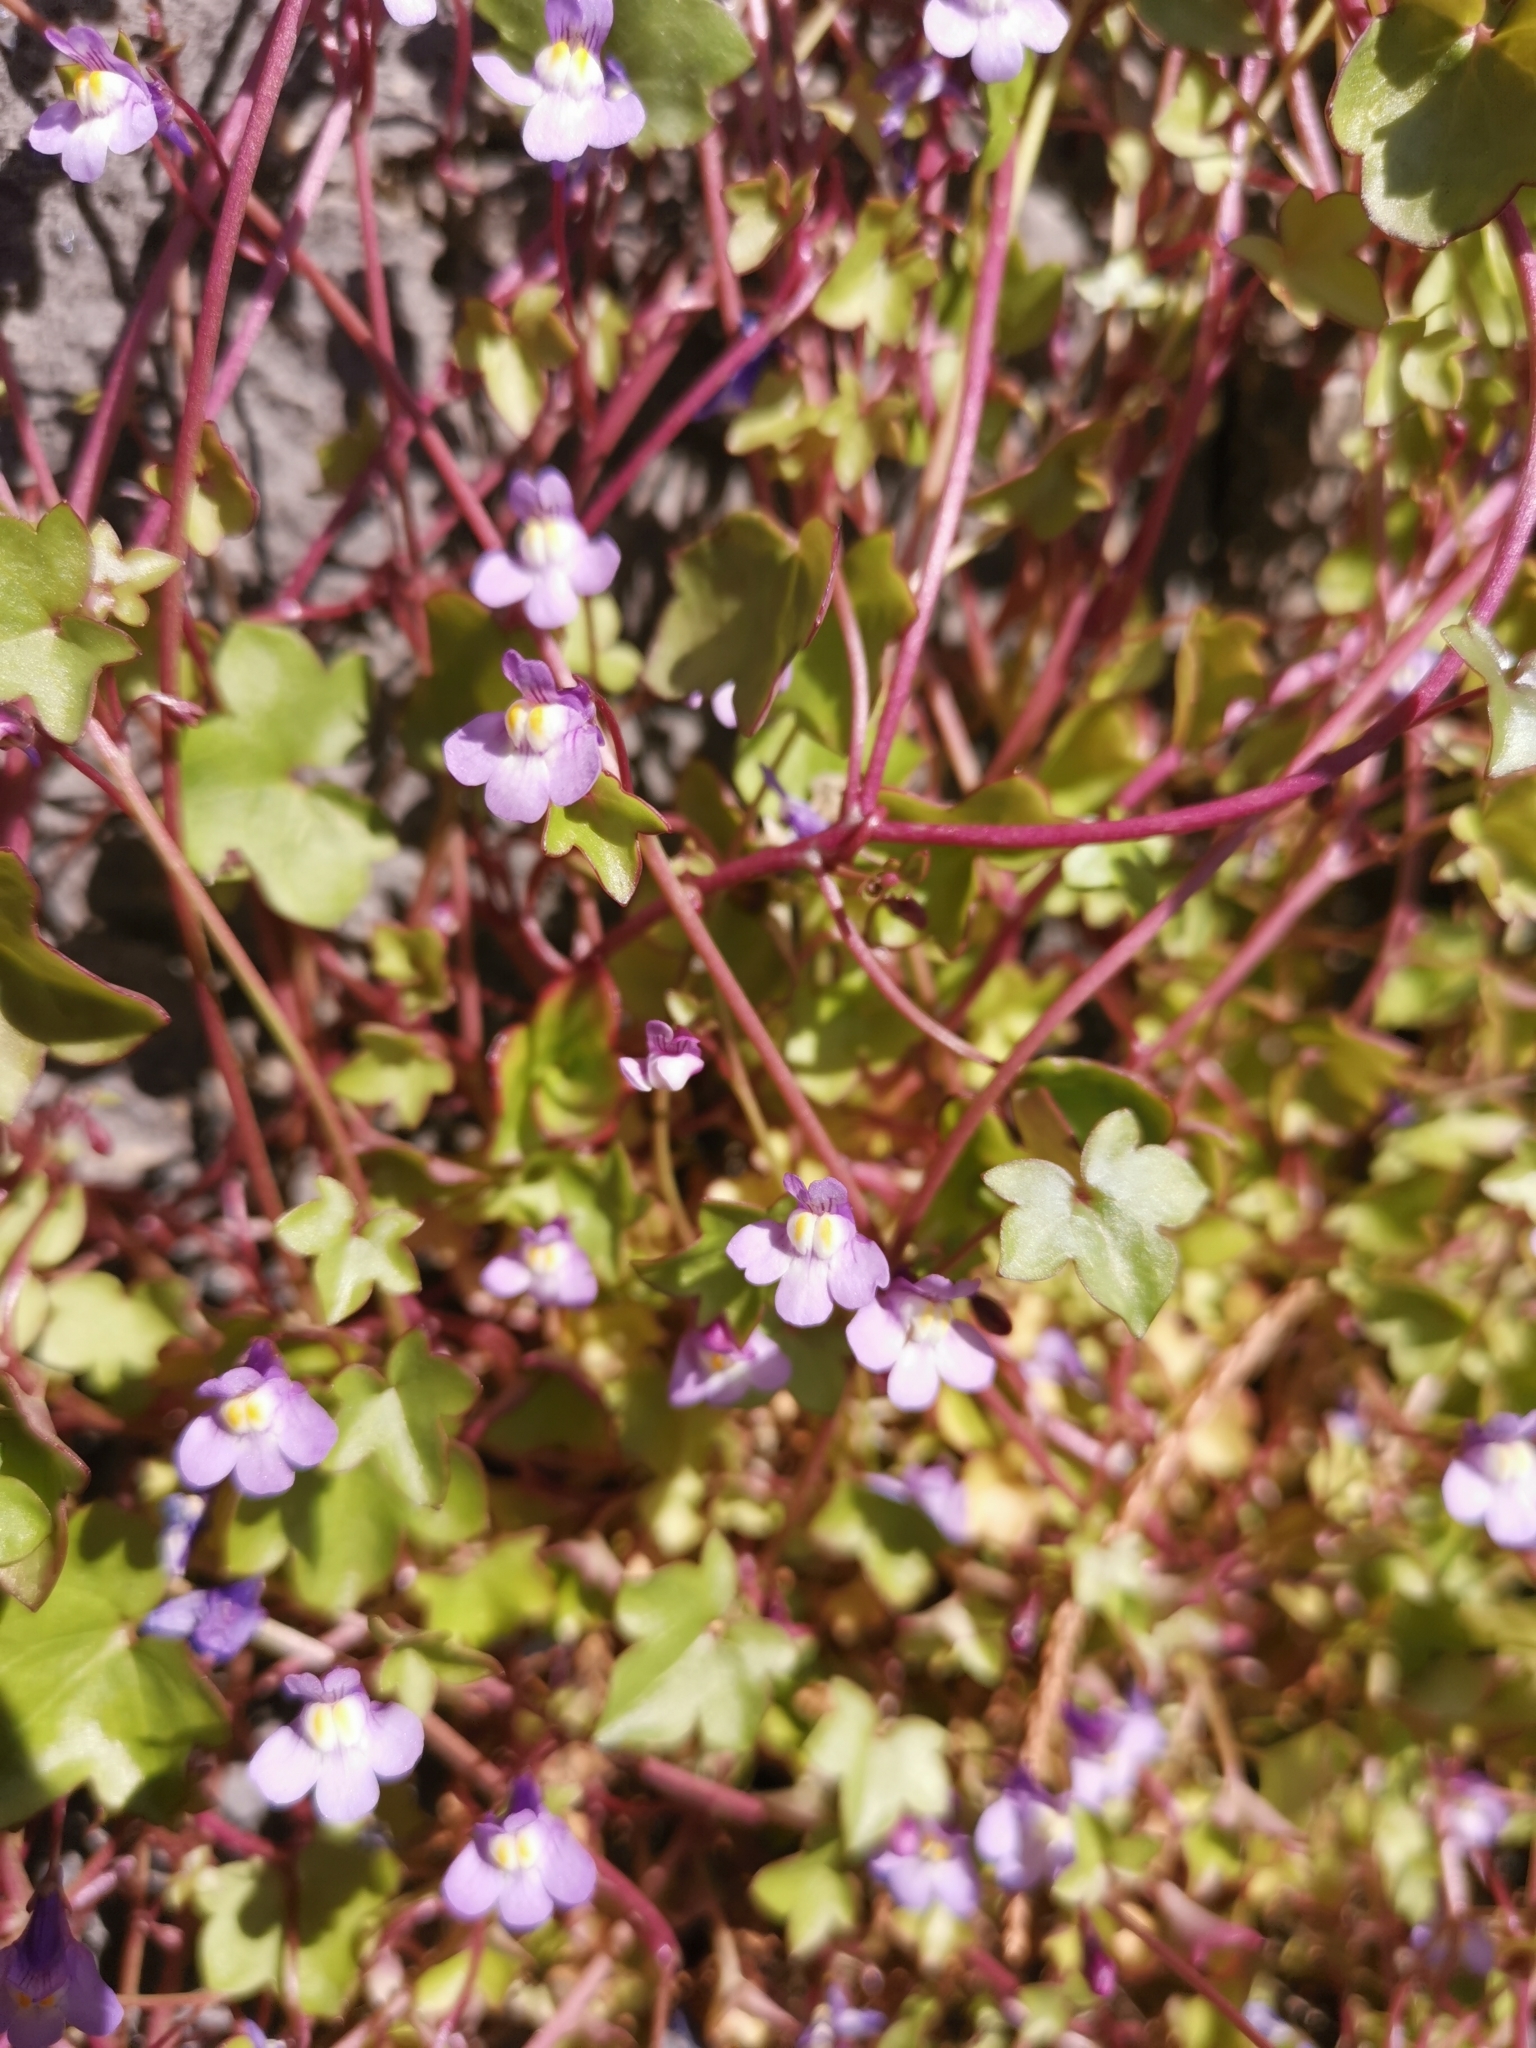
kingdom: Plantae
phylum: Tracheophyta
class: Magnoliopsida
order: Lamiales
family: Plantaginaceae
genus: Cymbalaria
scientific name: Cymbalaria muralis
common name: Ivy-leaved toadflax
